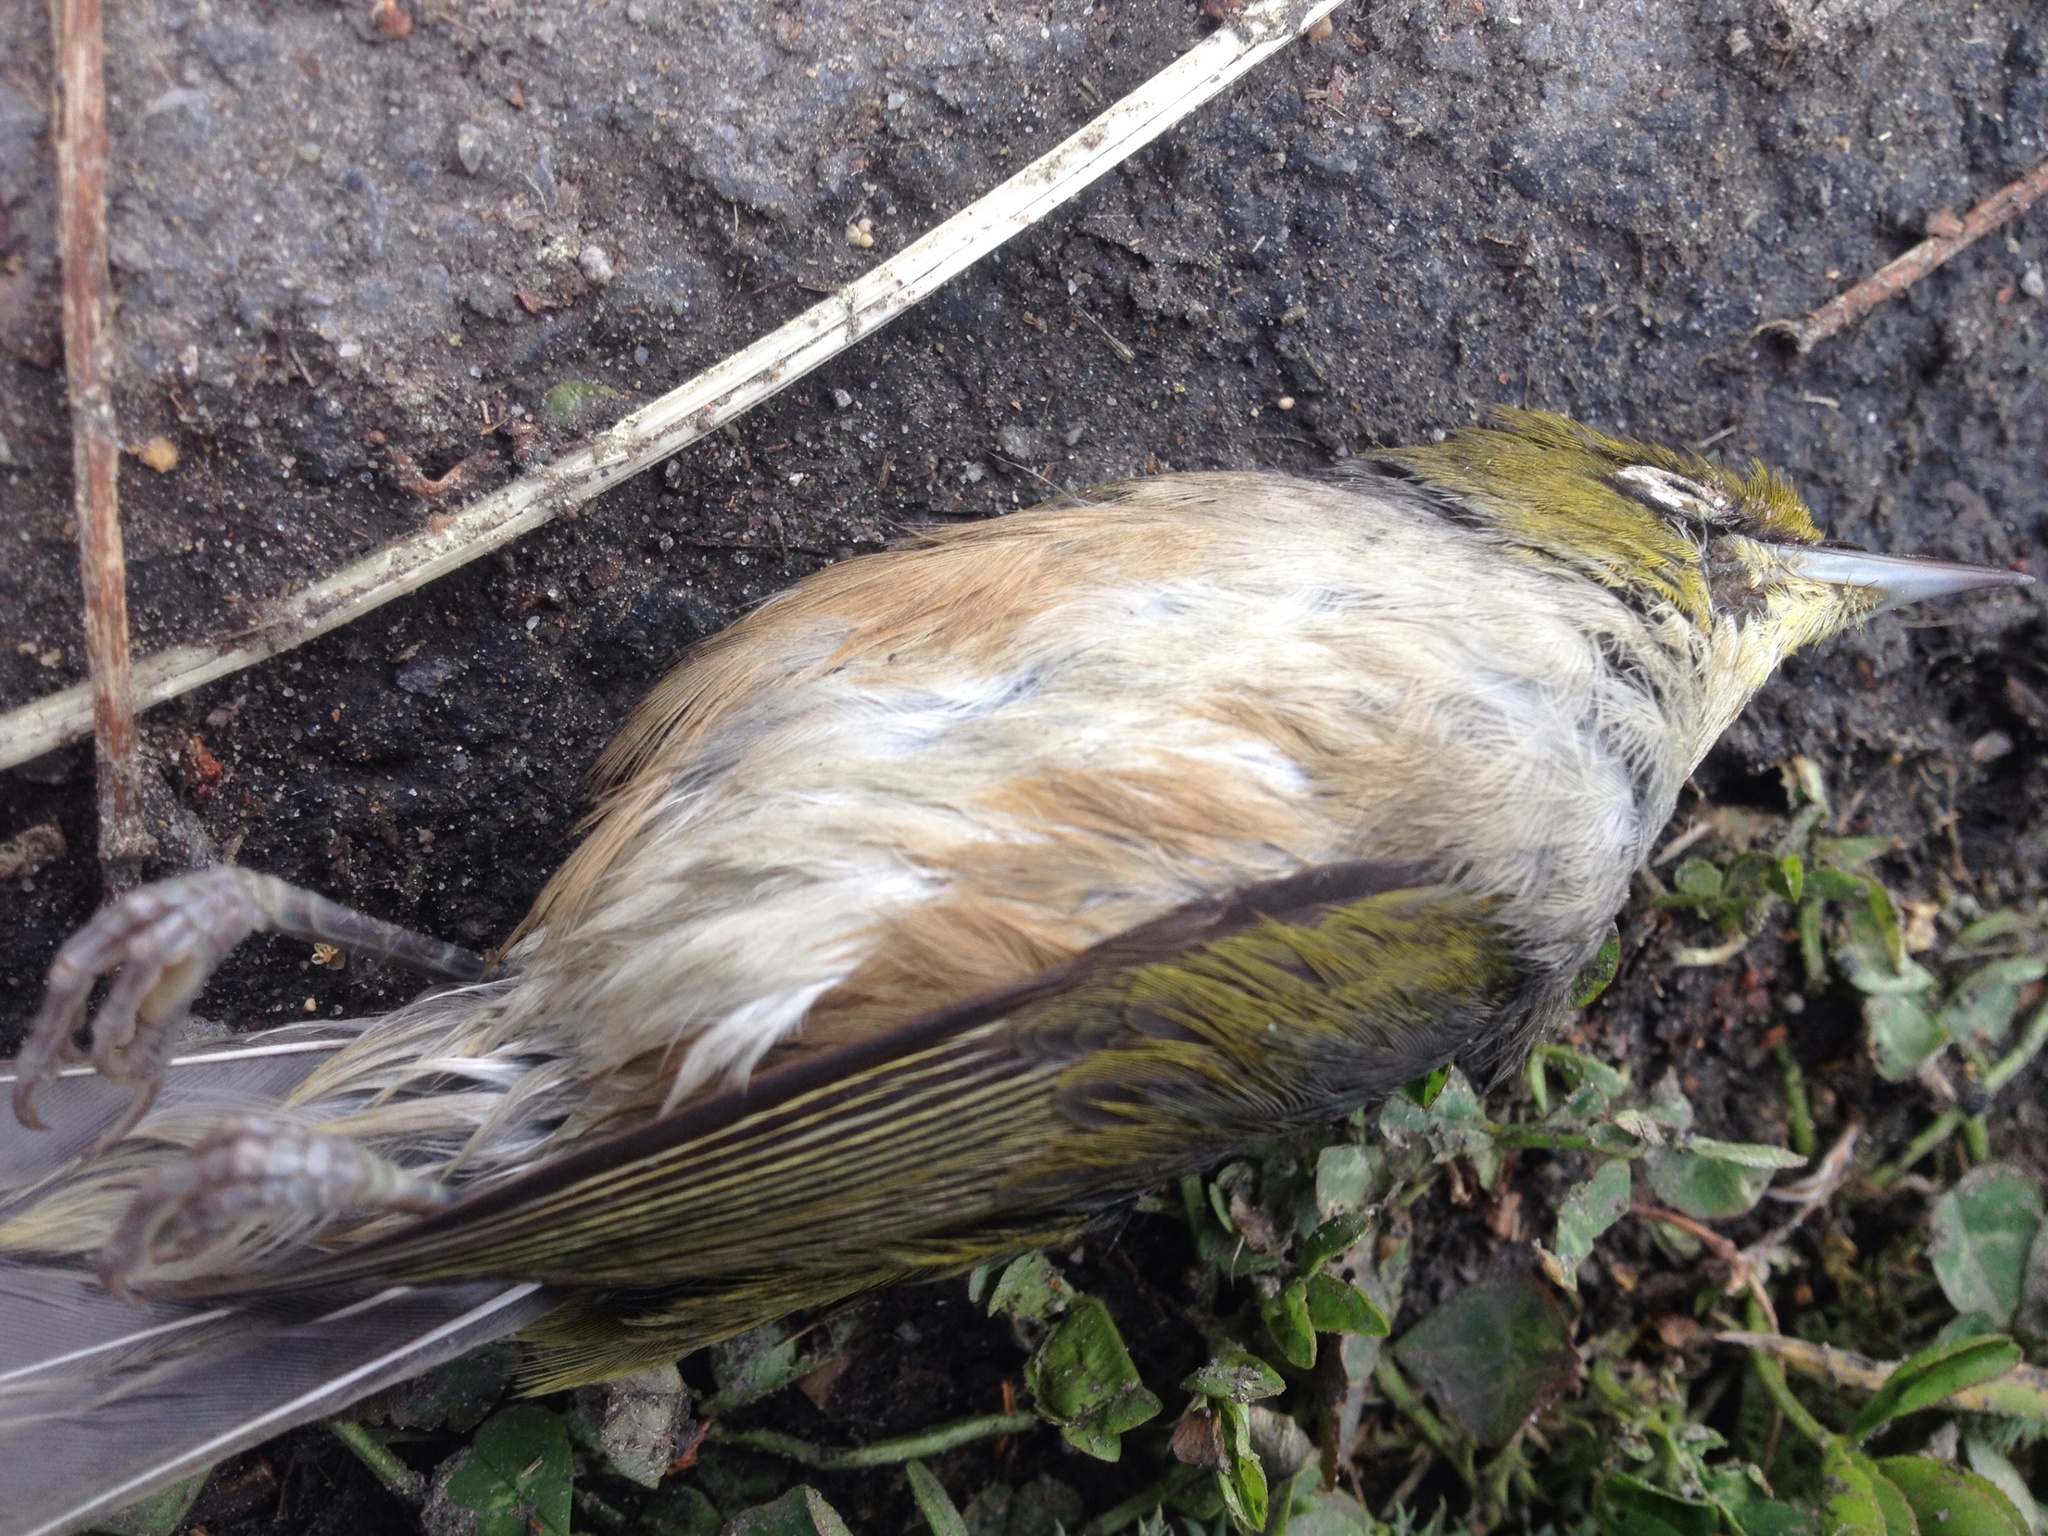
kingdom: Animalia
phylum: Chordata
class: Aves
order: Passeriformes
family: Zosteropidae
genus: Zosterops
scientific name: Zosterops lateralis
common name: Silvereye
